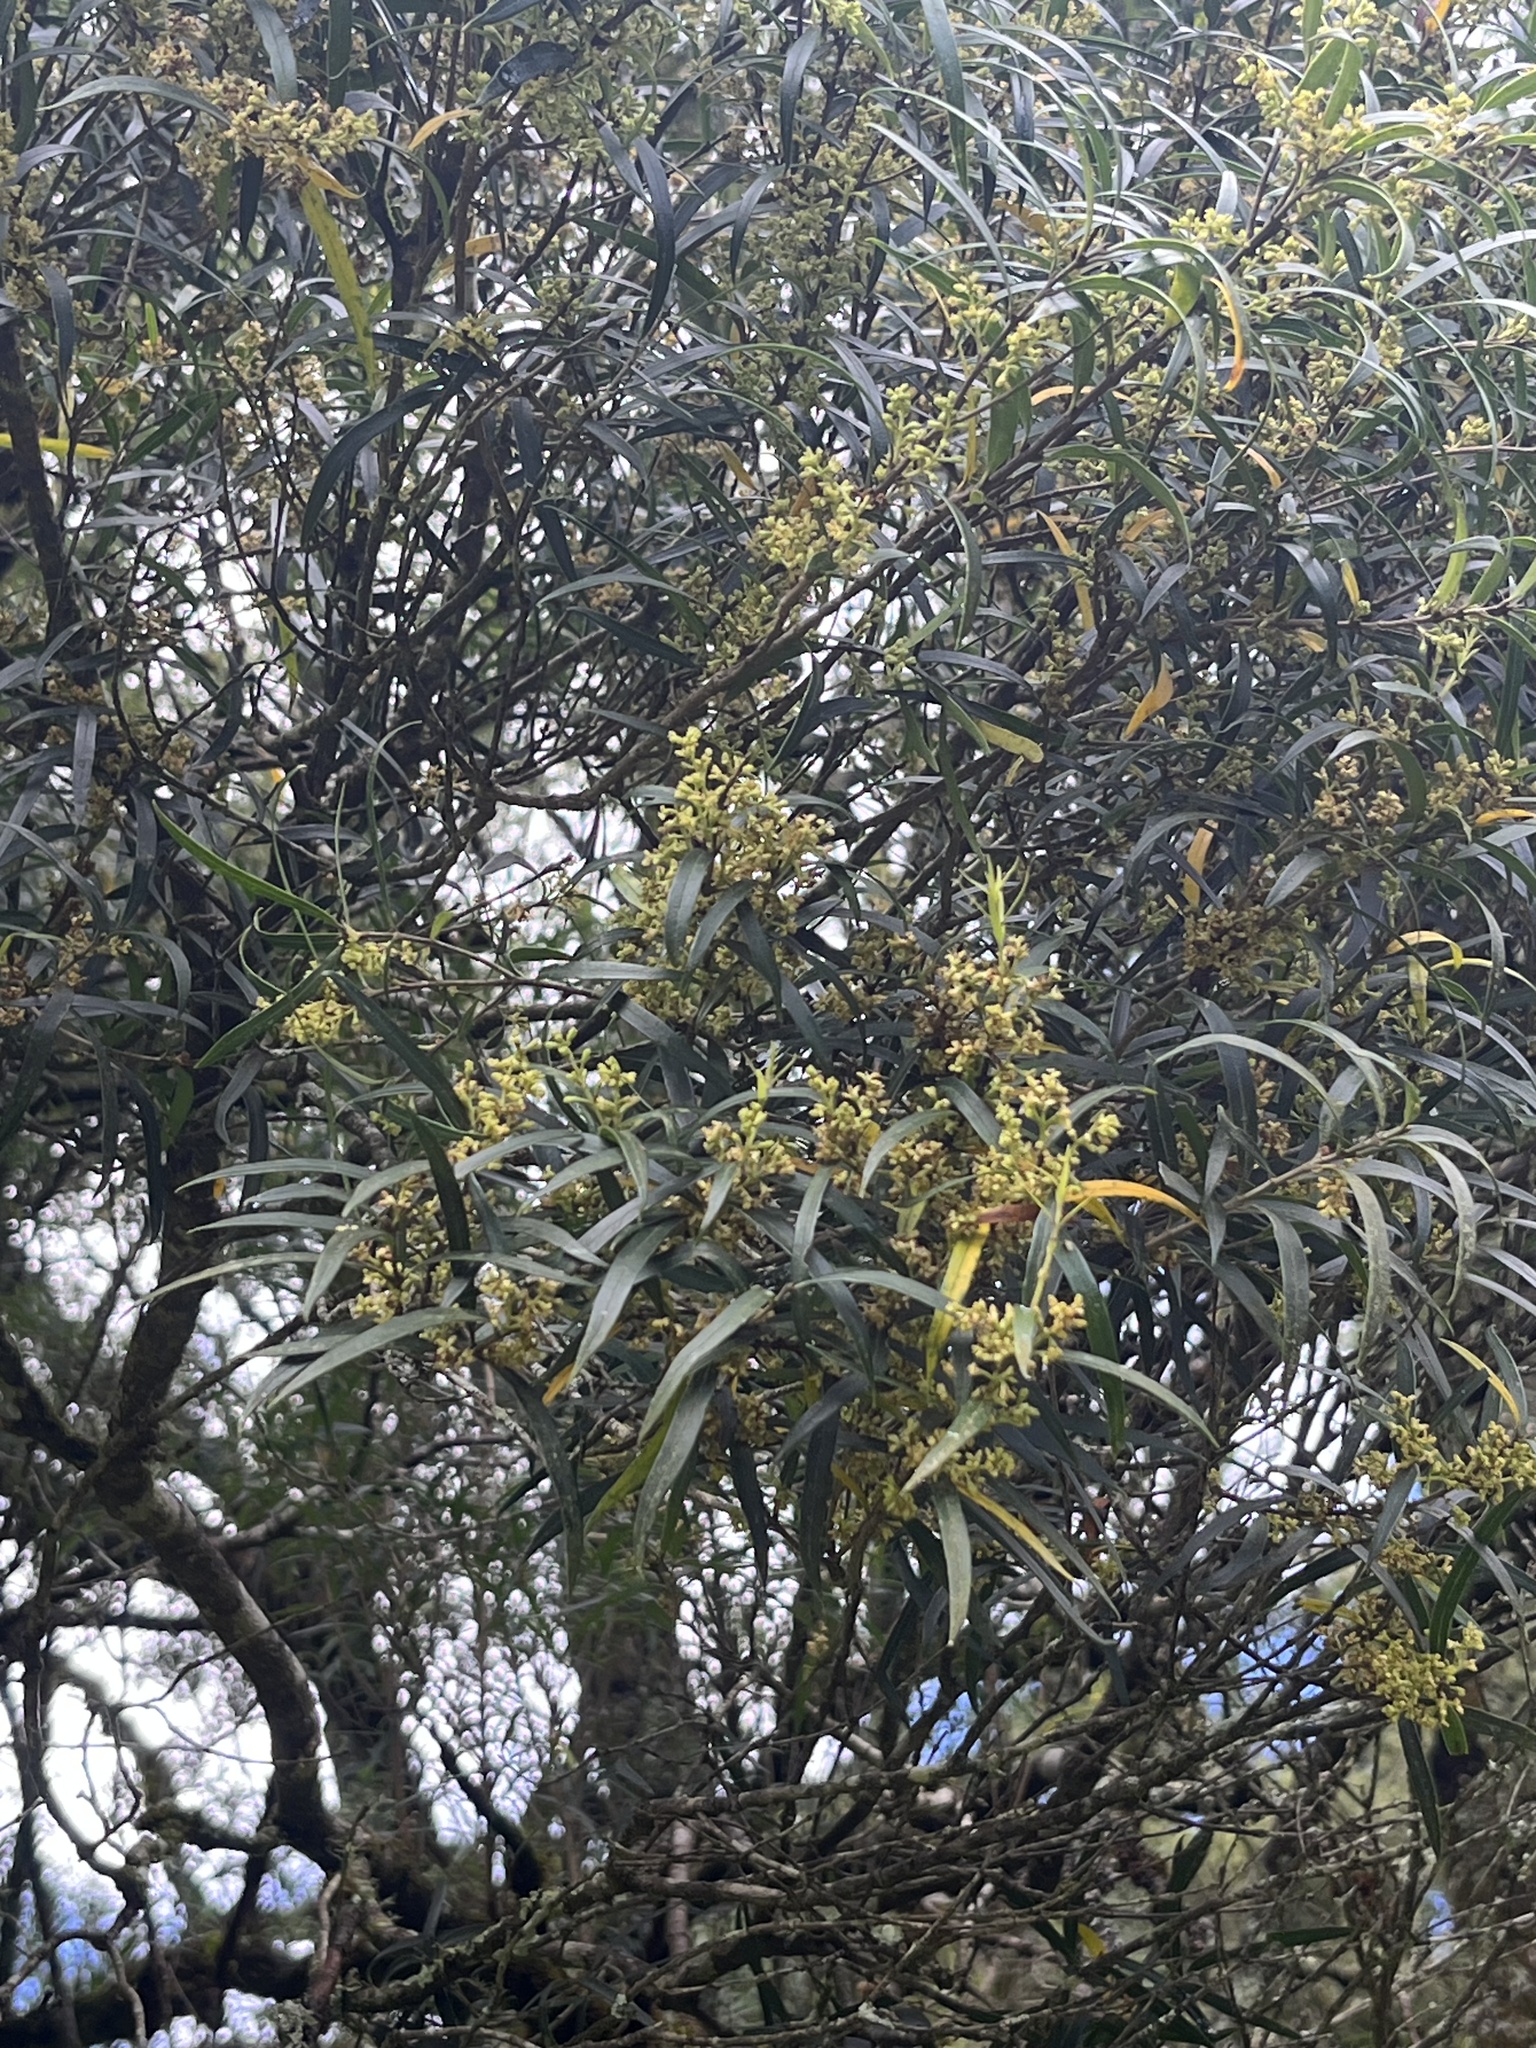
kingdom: Plantae
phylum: Tracheophyta
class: Magnoliopsida
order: Lamiales
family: Oleaceae
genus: Nestegis
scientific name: Nestegis montana
